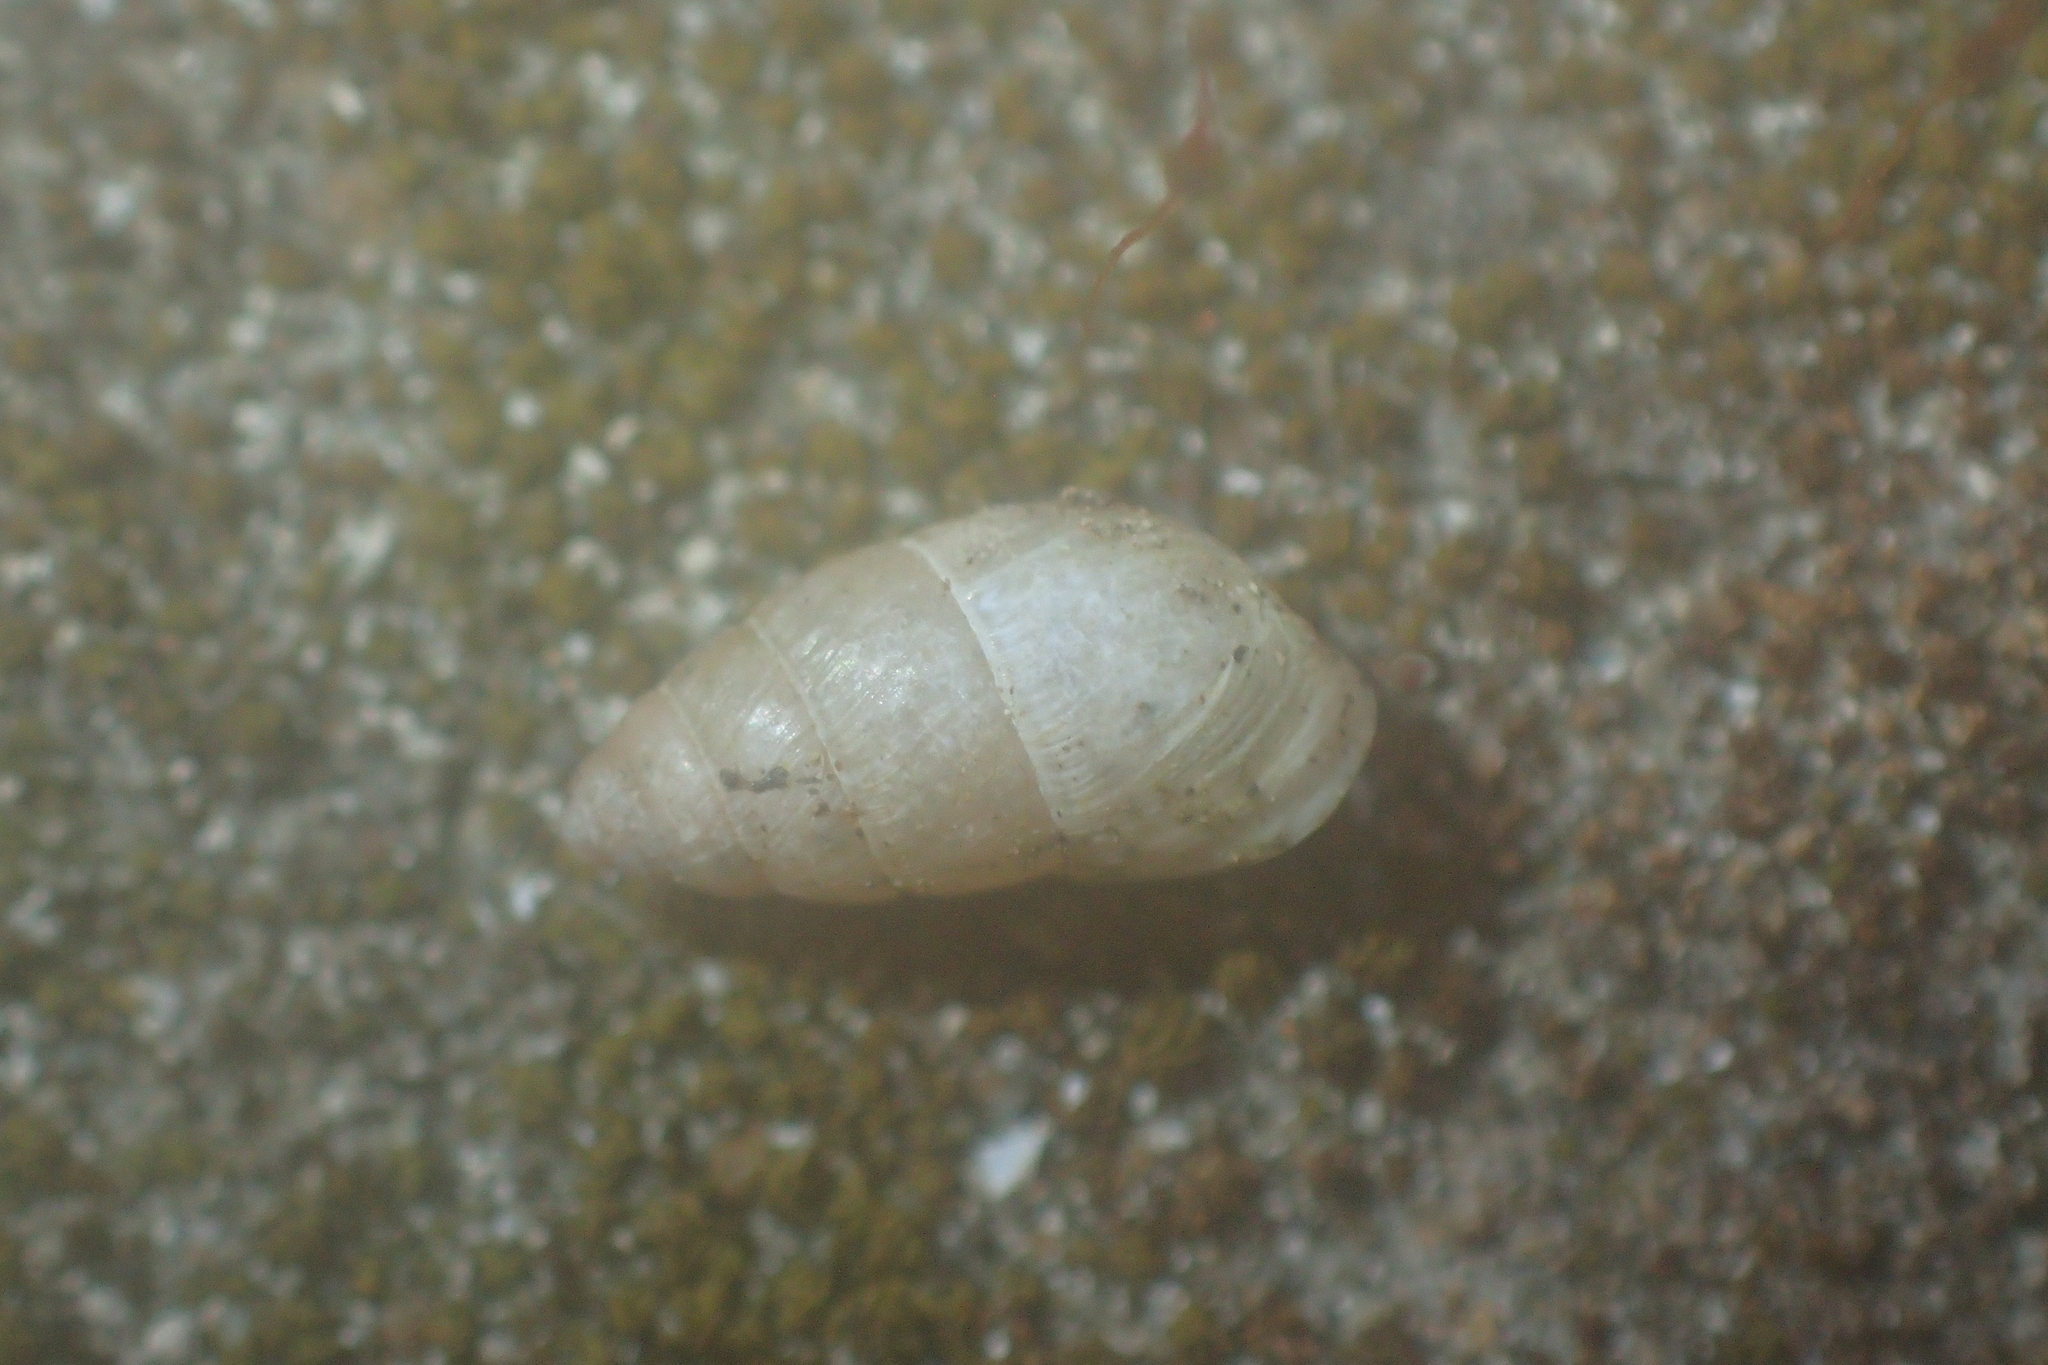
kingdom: Animalia
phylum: Mollusca
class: Gastropoda
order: Stylommatophora
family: Enidae
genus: Euchondrus
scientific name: Euchondrus parreyssi
